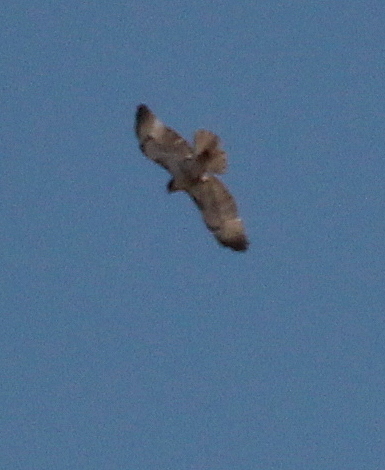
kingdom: Animalia
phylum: Chordata
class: Aves
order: Accipitriformes
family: Accipitridae
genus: Buteo
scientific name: Buteo jamaicensis
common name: Red-tailed hawk
